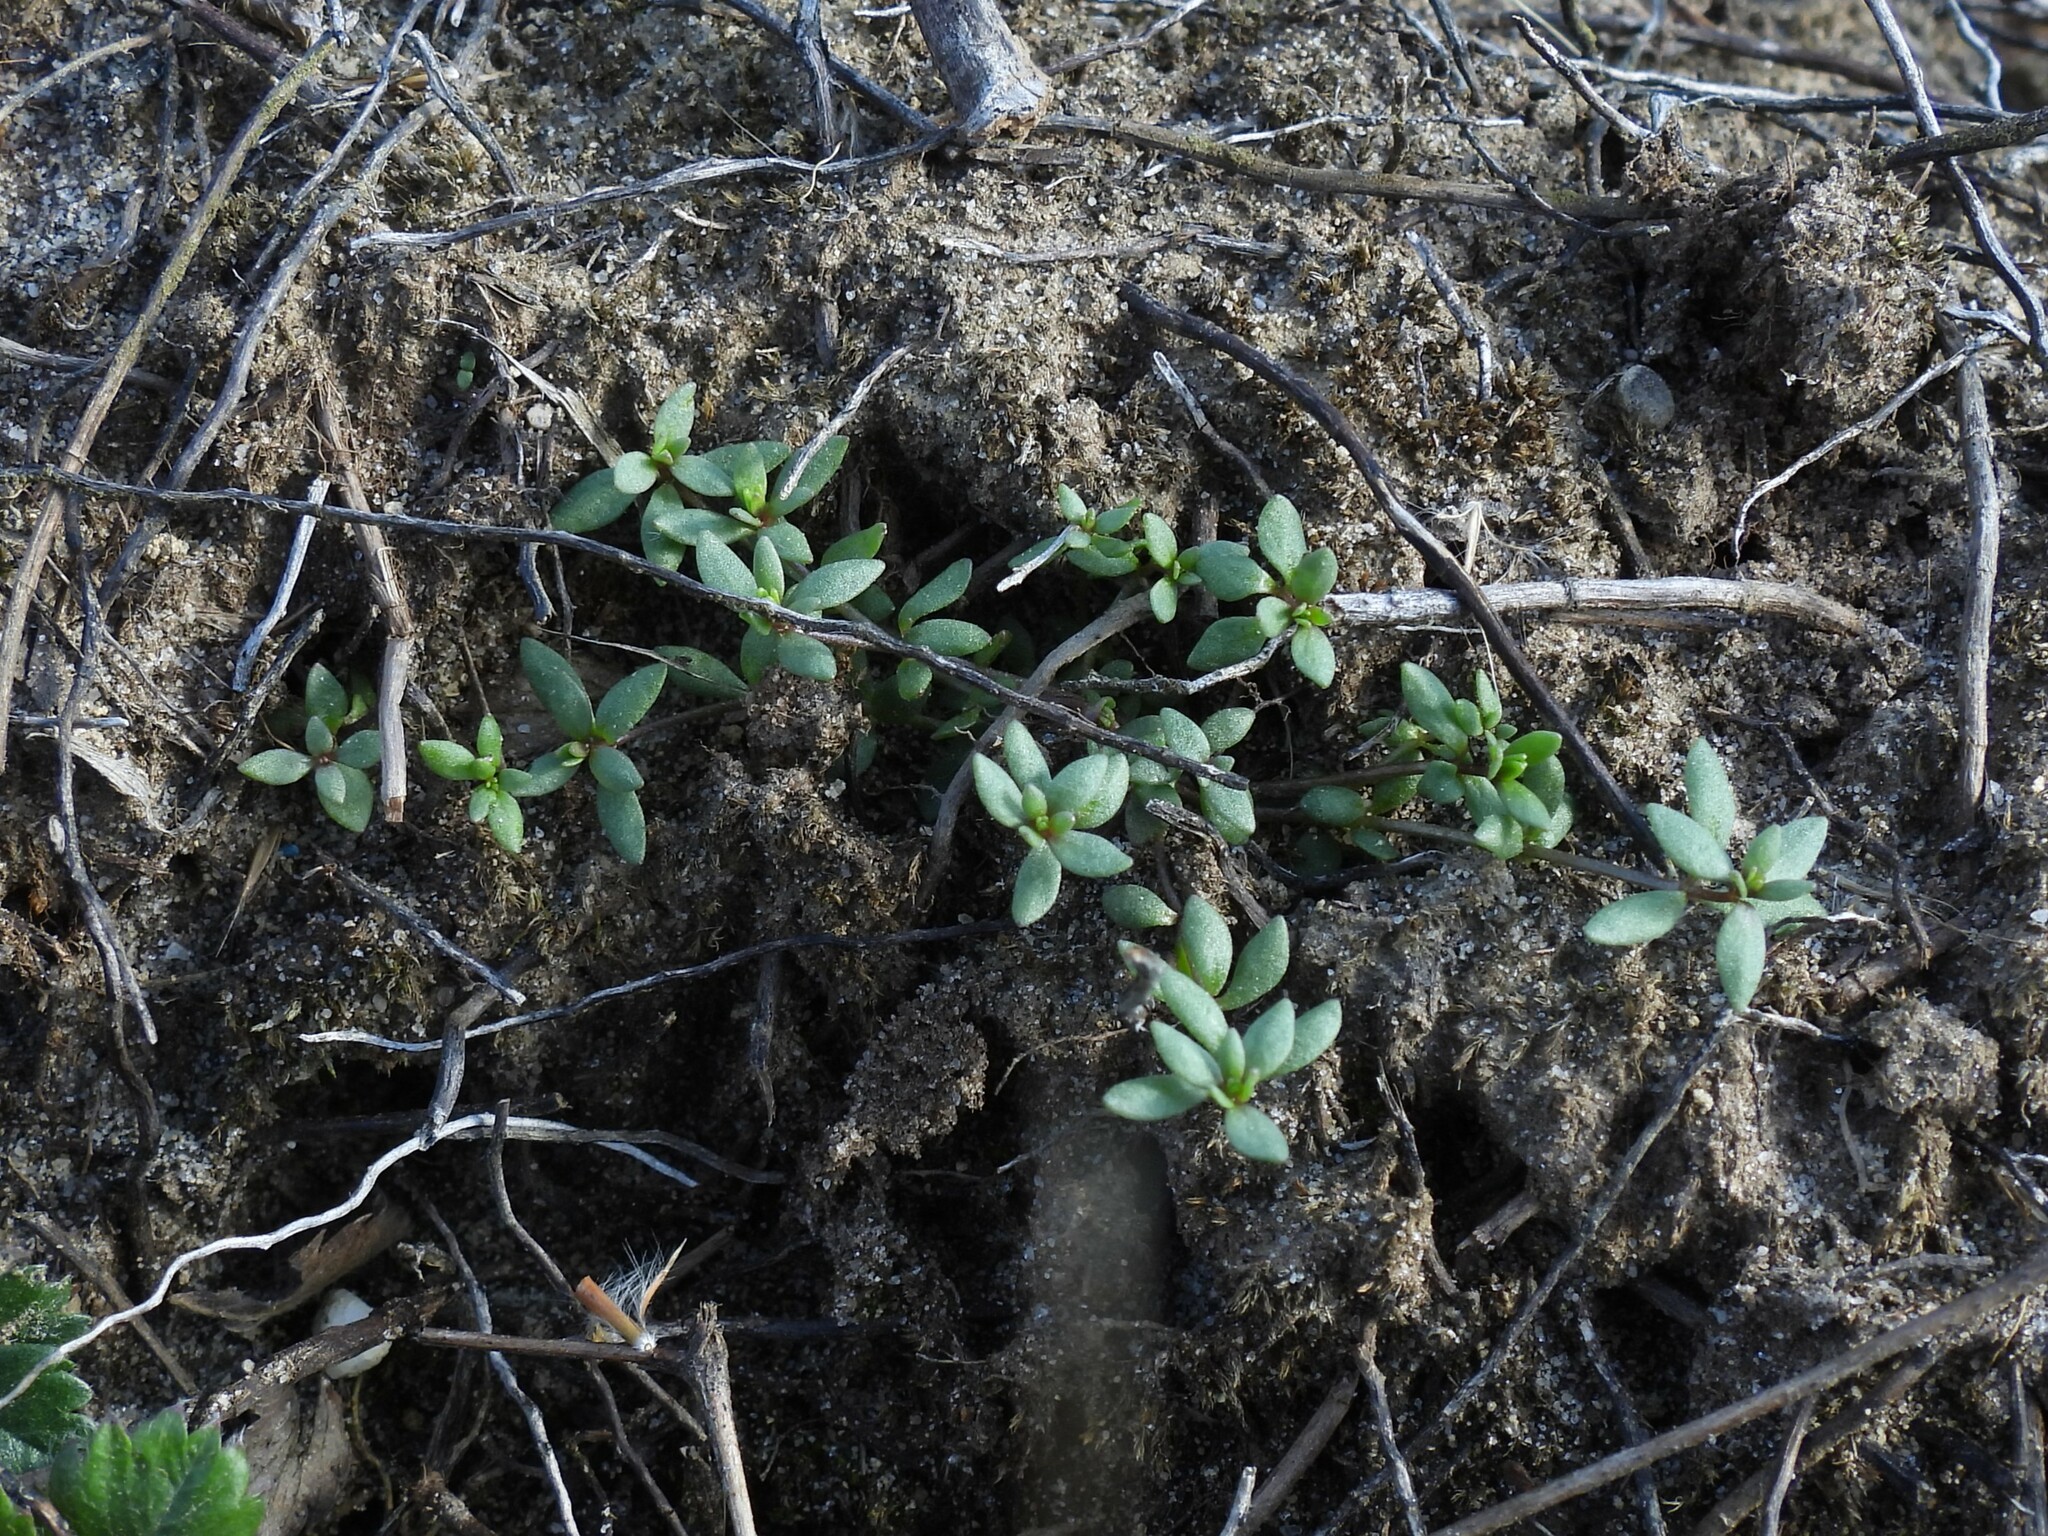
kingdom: Plantae
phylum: Tracheophyta
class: Magnoliopsida
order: Saxifragales
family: Crassulaceae
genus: Sedum
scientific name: Sedum sarmentosum
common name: Stringy stonecrop
